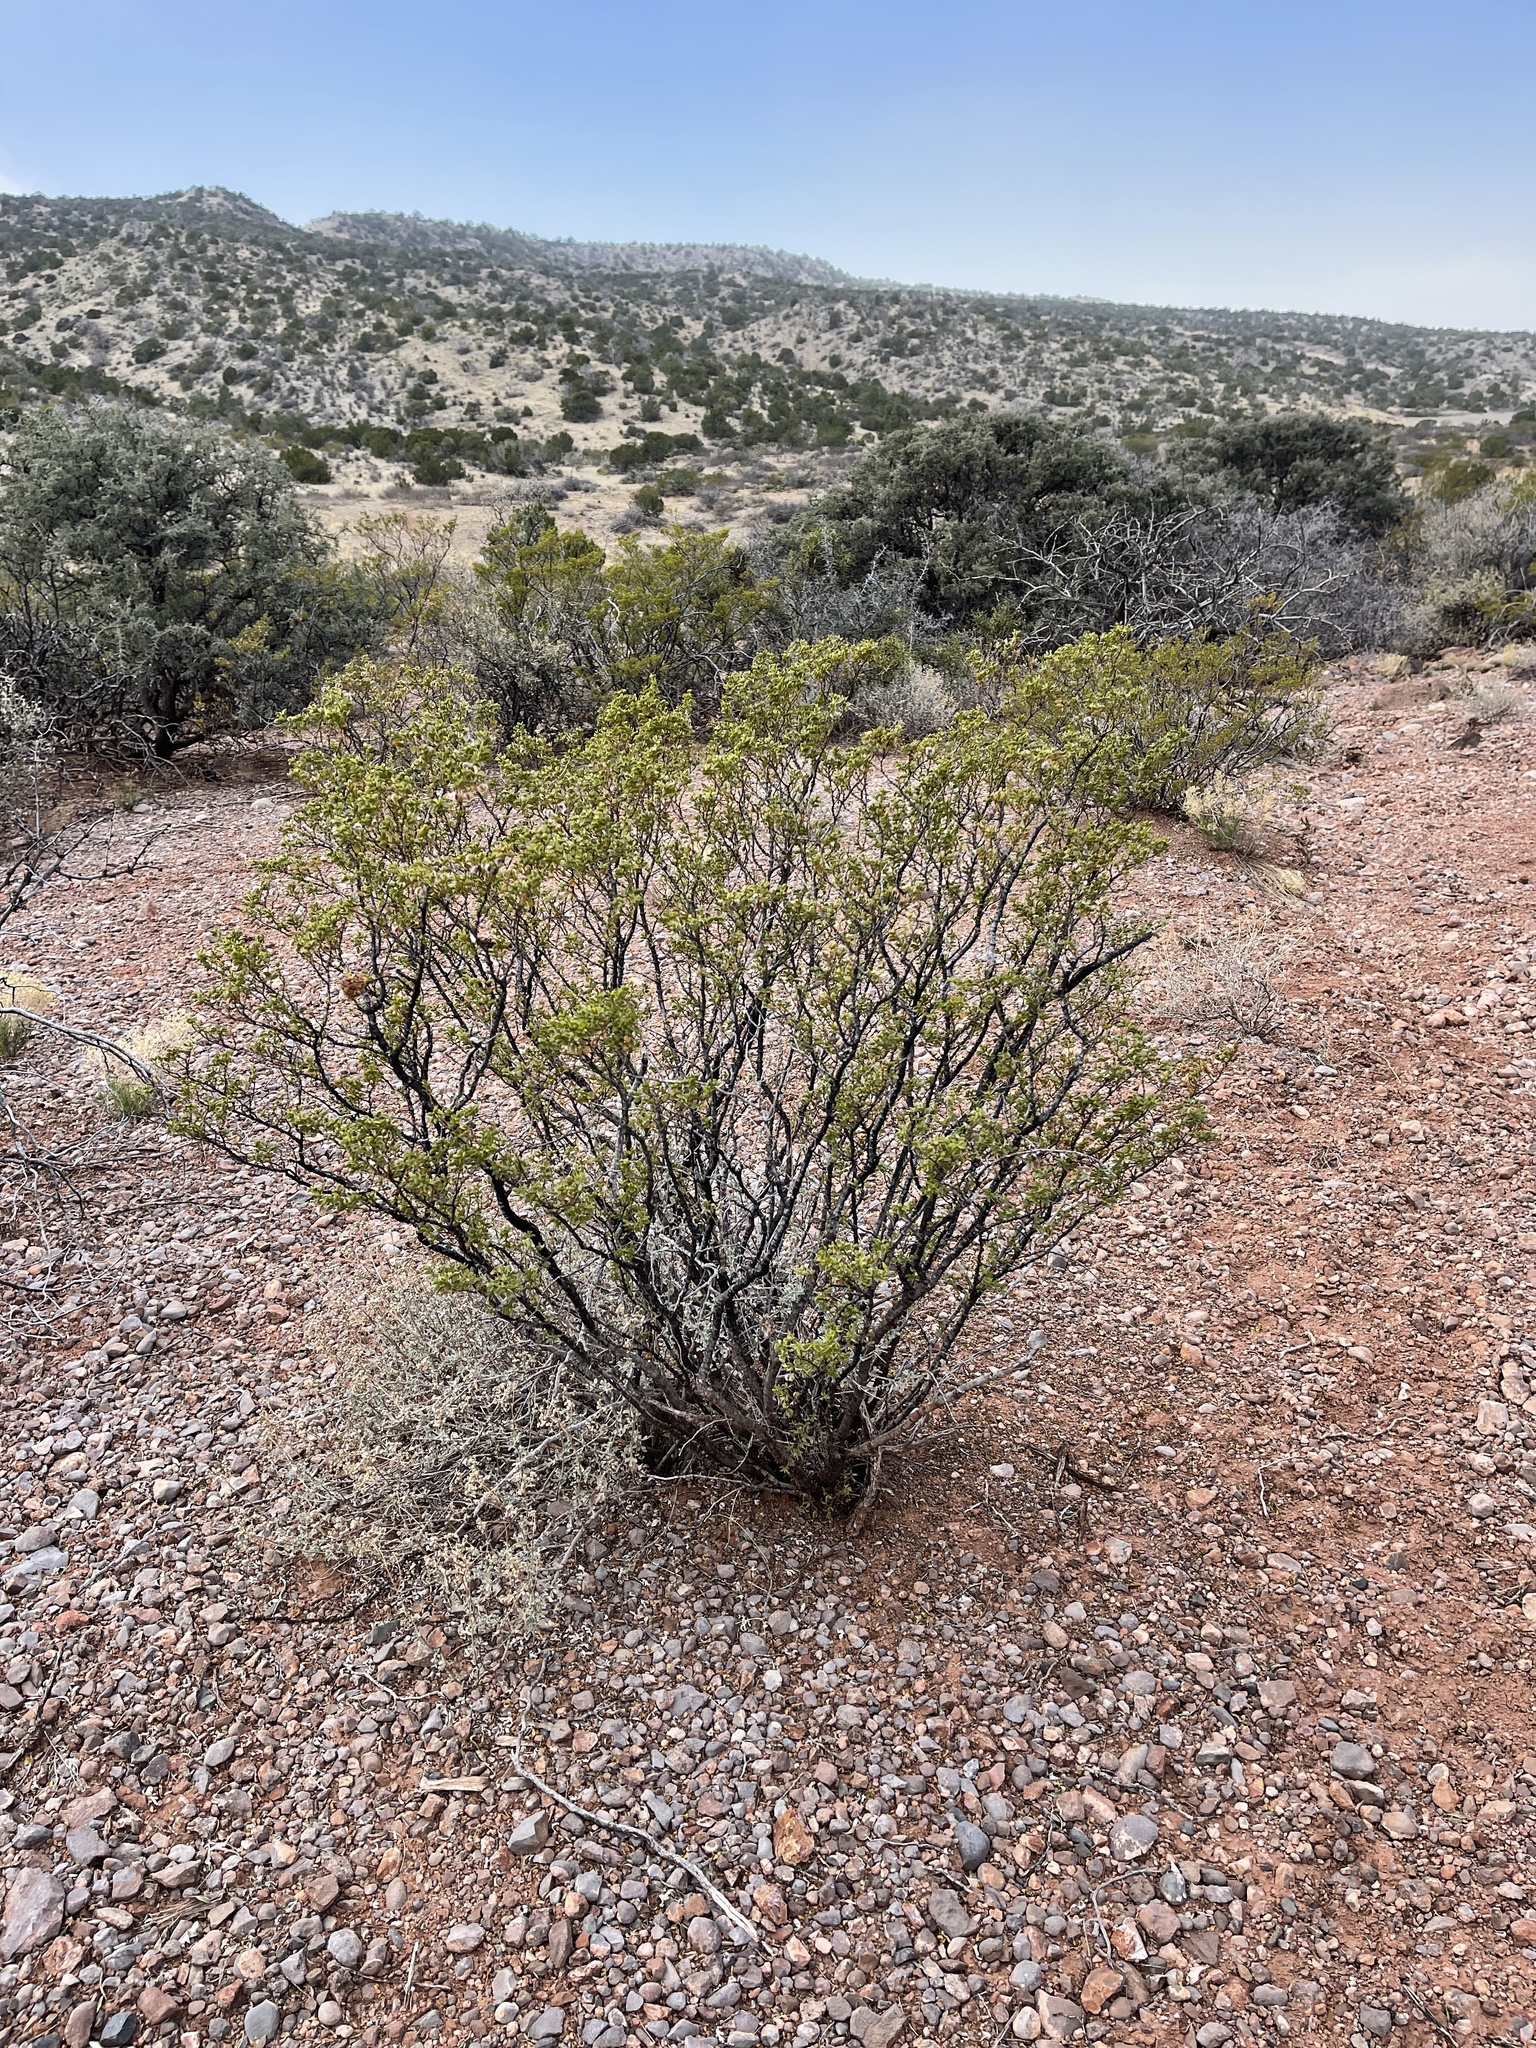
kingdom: Plantae
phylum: Tracheophyta
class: Magnoliopsida
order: Zygophyllales
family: Zygophyllaceae
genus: Larrea
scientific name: Larrea tridentata
